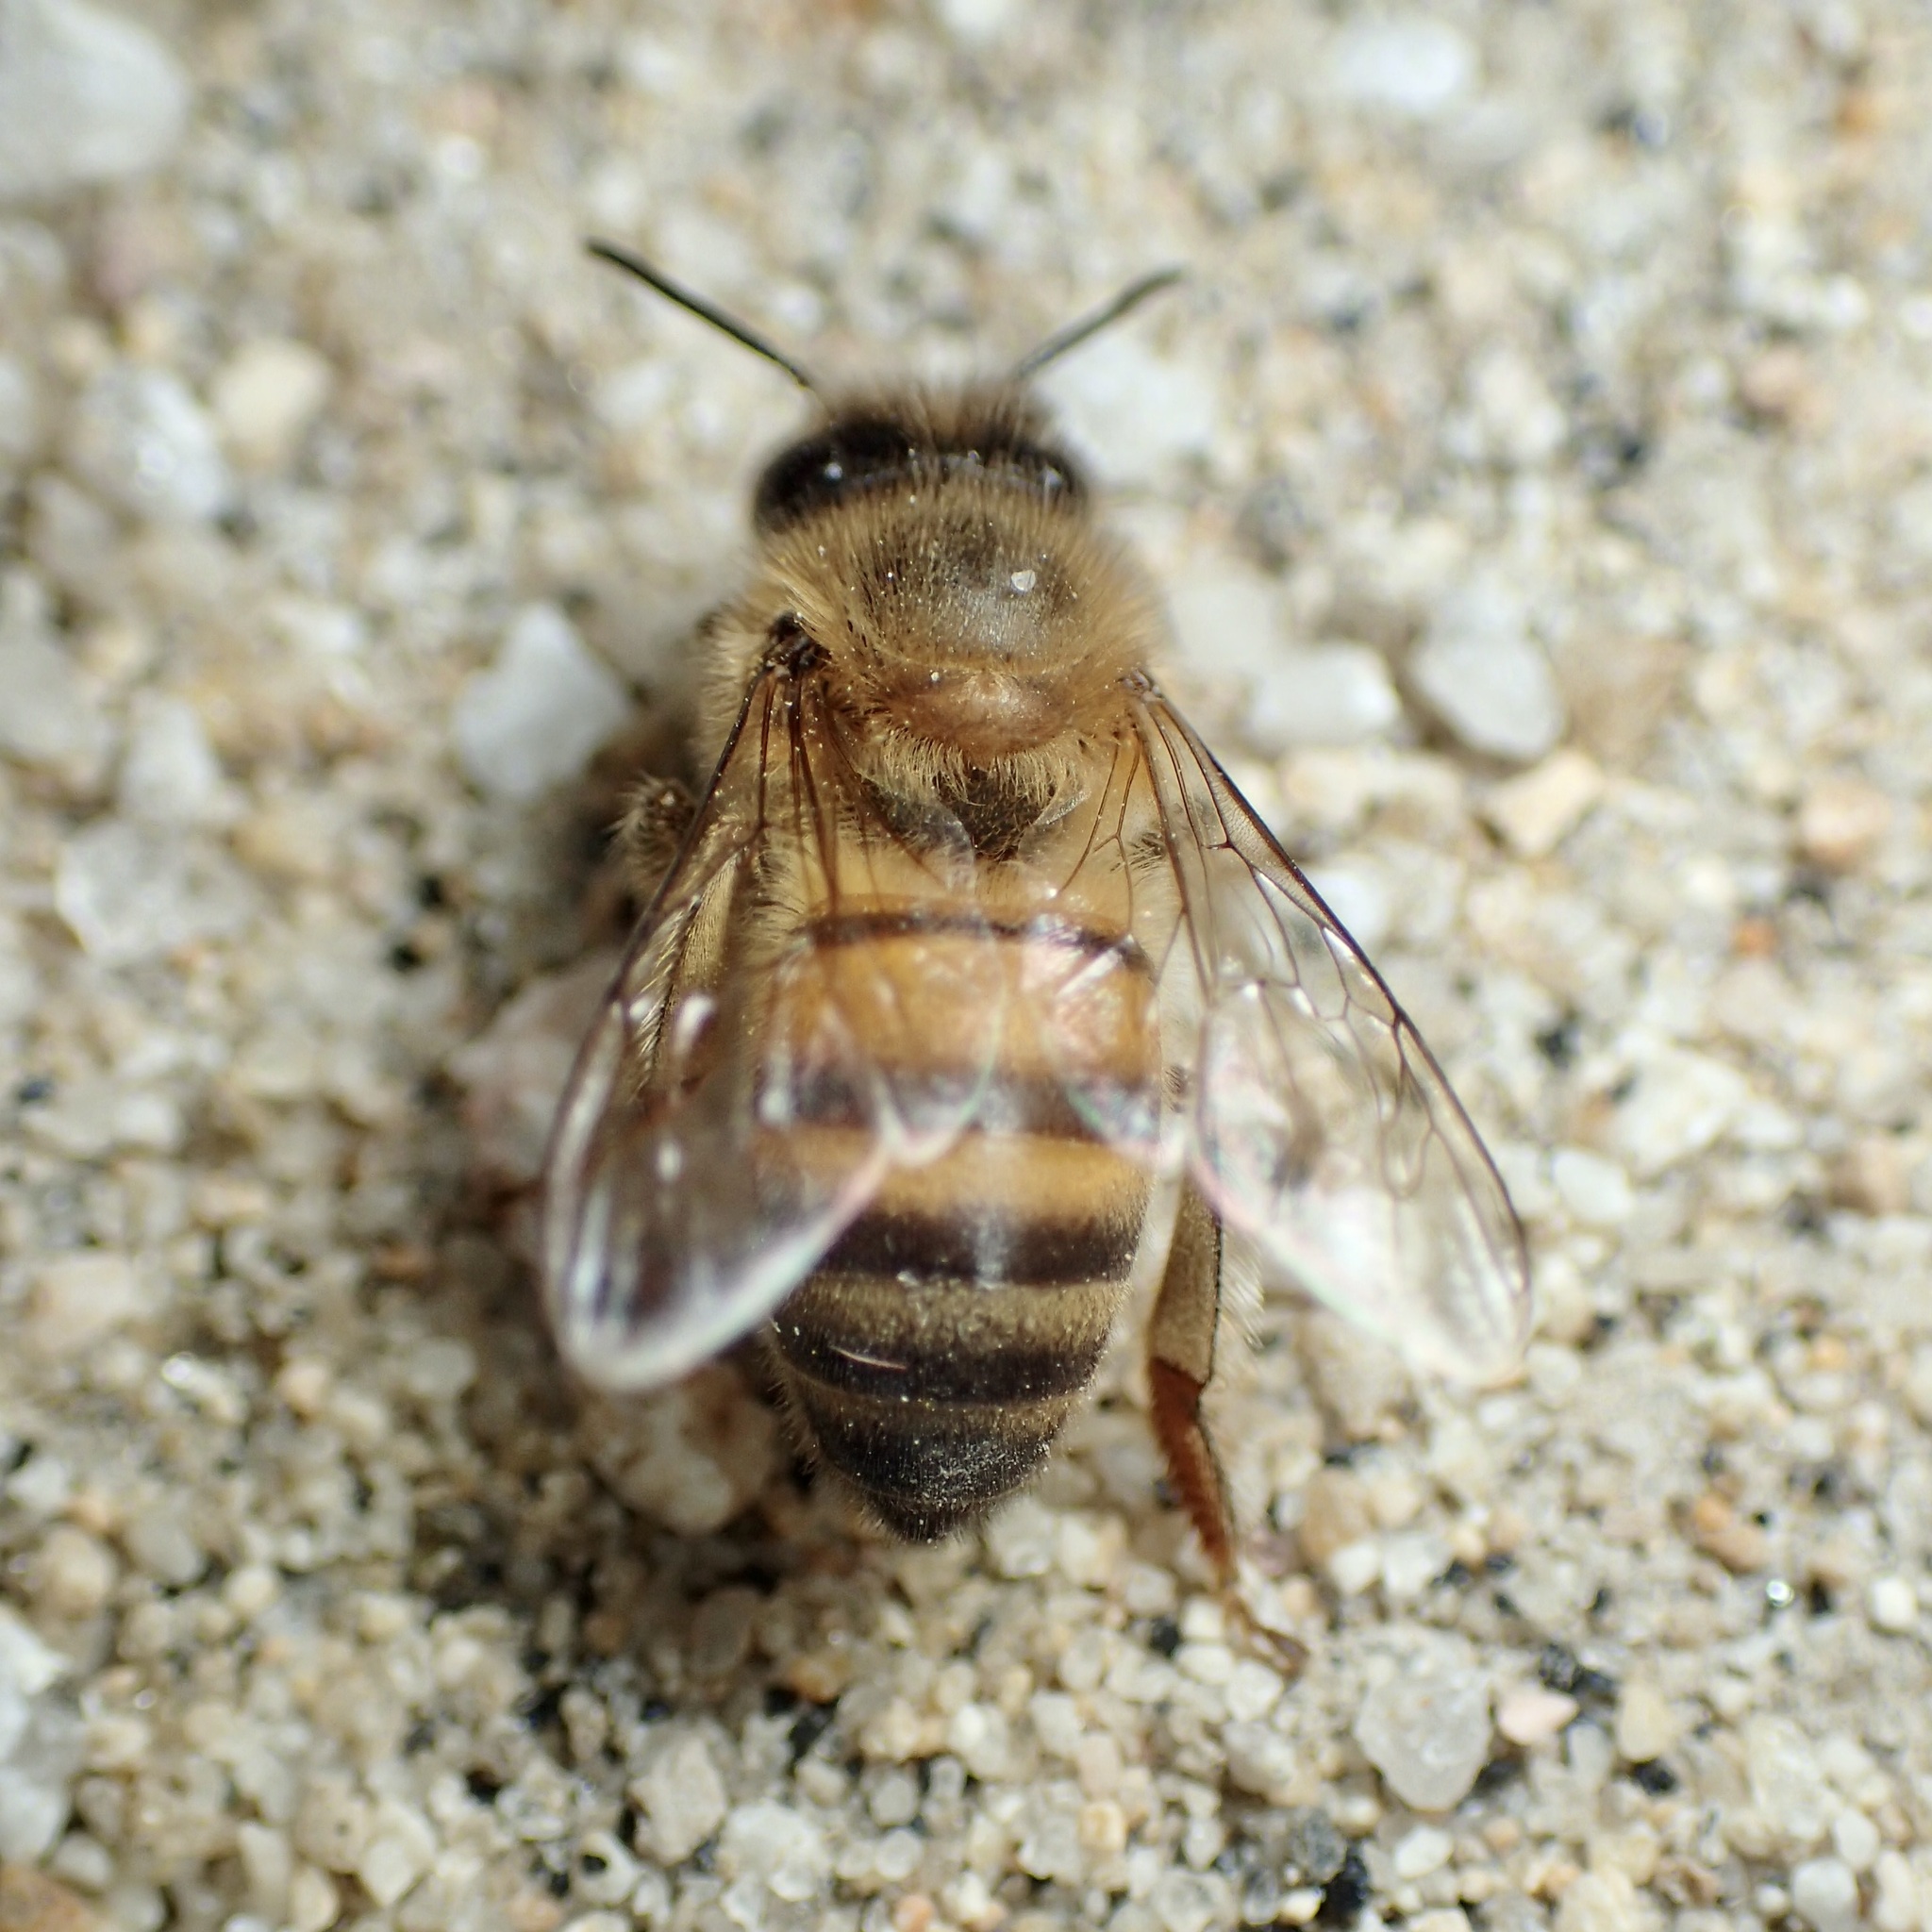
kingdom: Animalia
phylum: Arthropoda
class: Insecta
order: Hymenoptera
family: Apidae
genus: Apis
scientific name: Apis mellifera
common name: Honey bee
